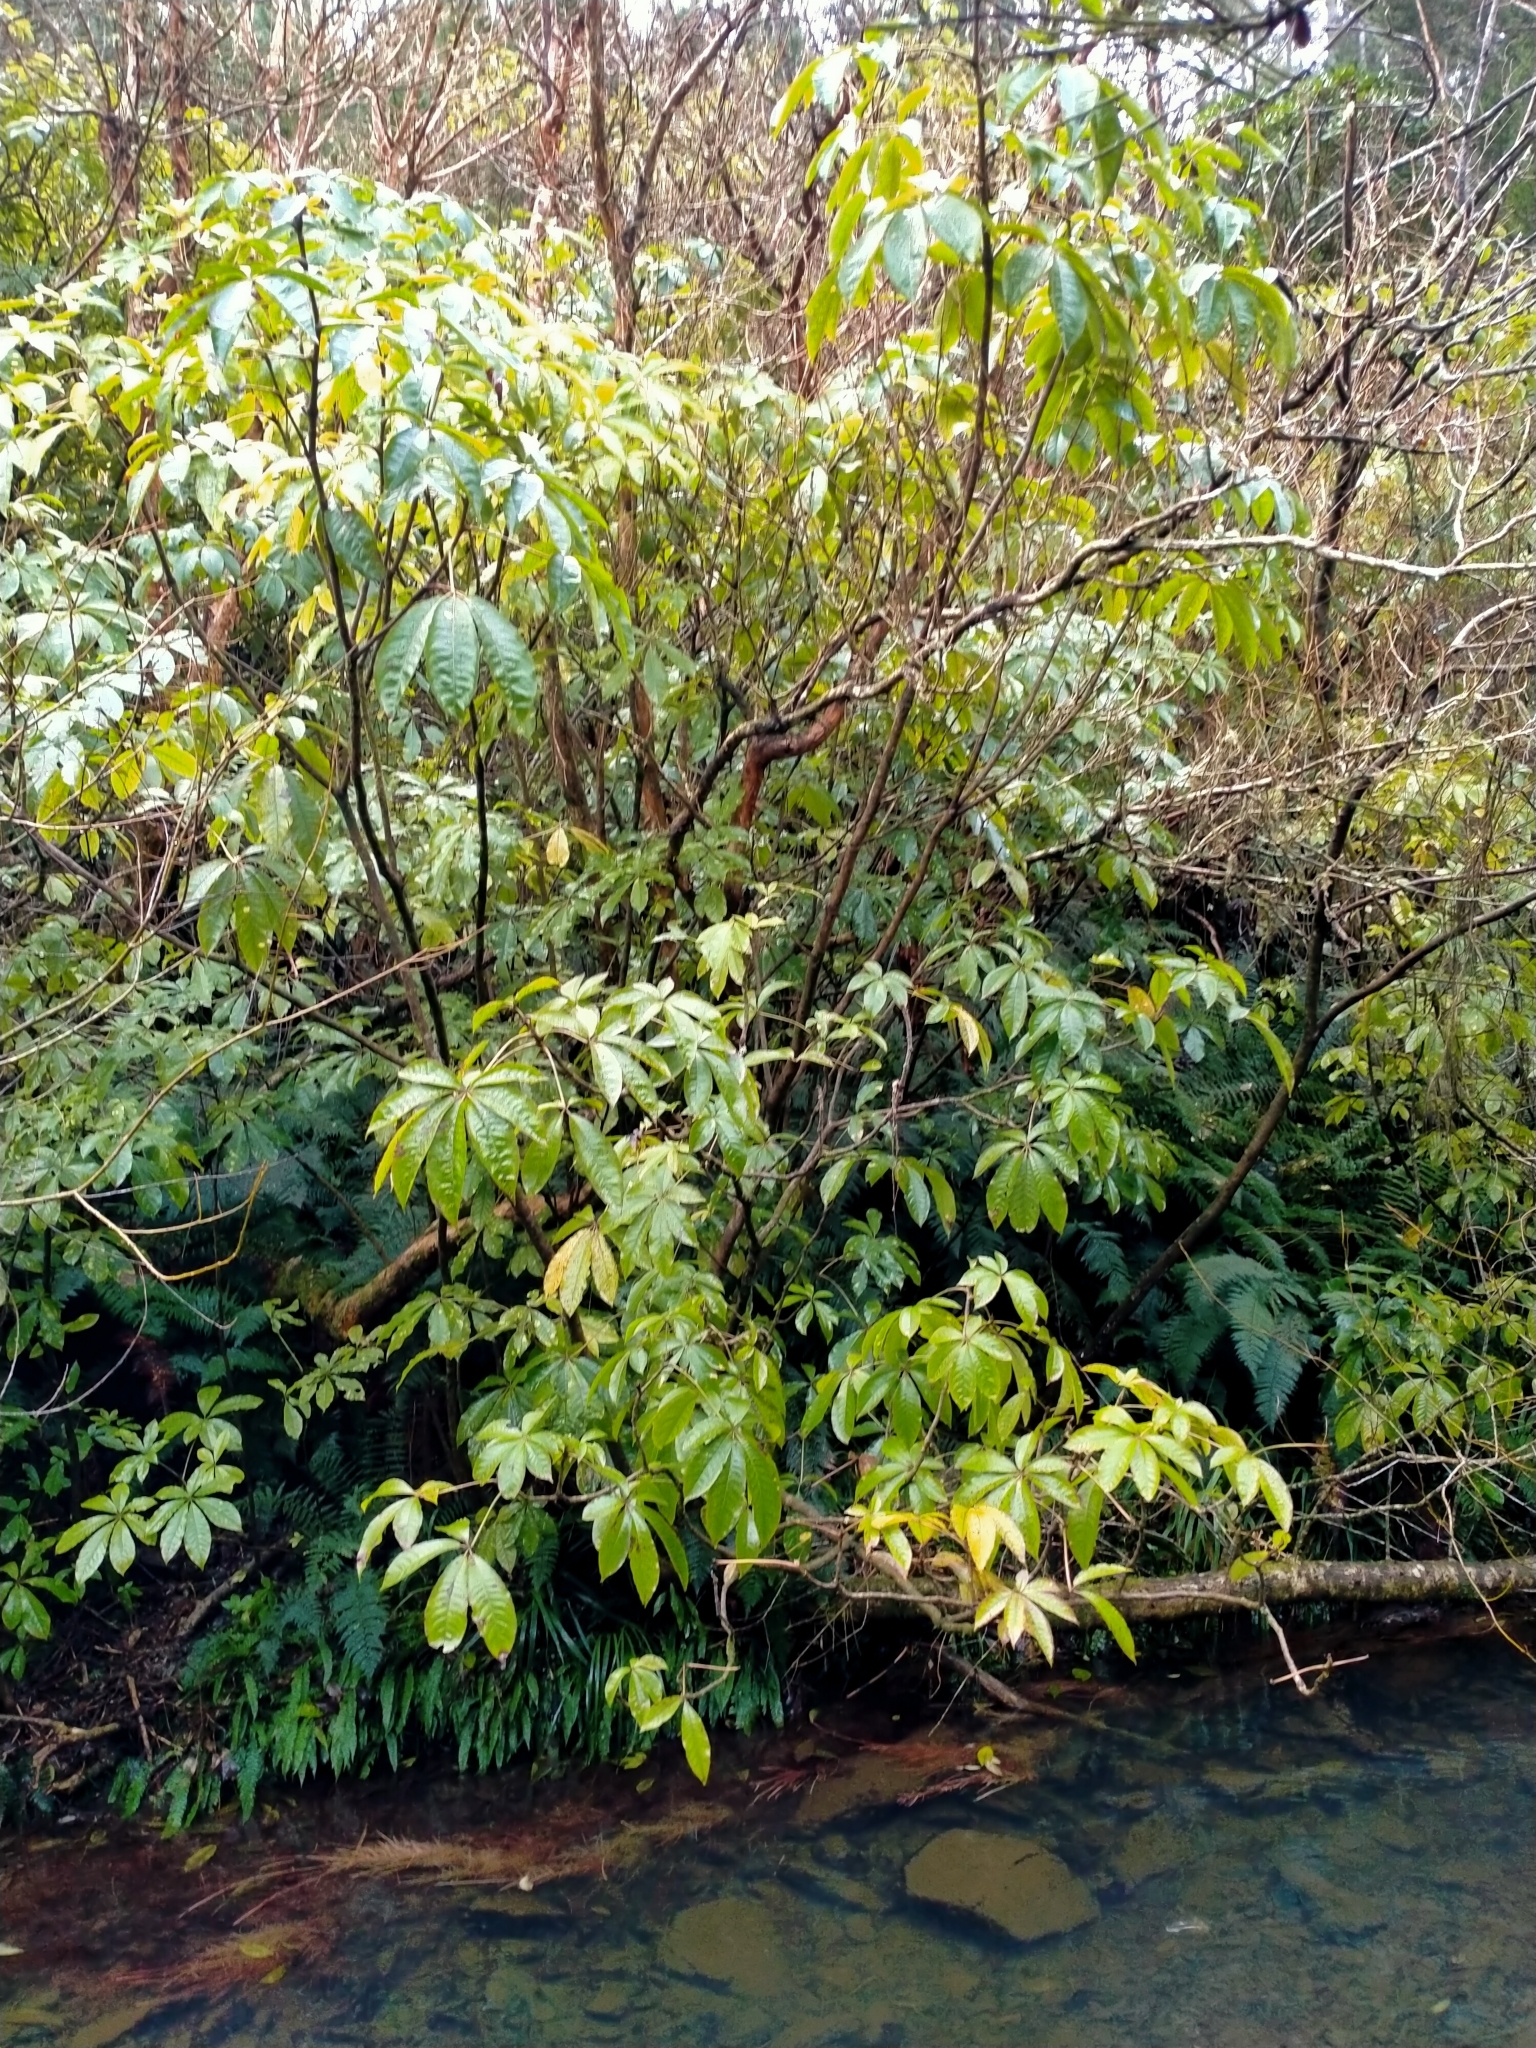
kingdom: Plantae
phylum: Tracheophyta
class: Magnoliopsida
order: Apiales
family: Araliaceae
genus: Schefflera
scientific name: Schefflera digitata
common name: Pate
